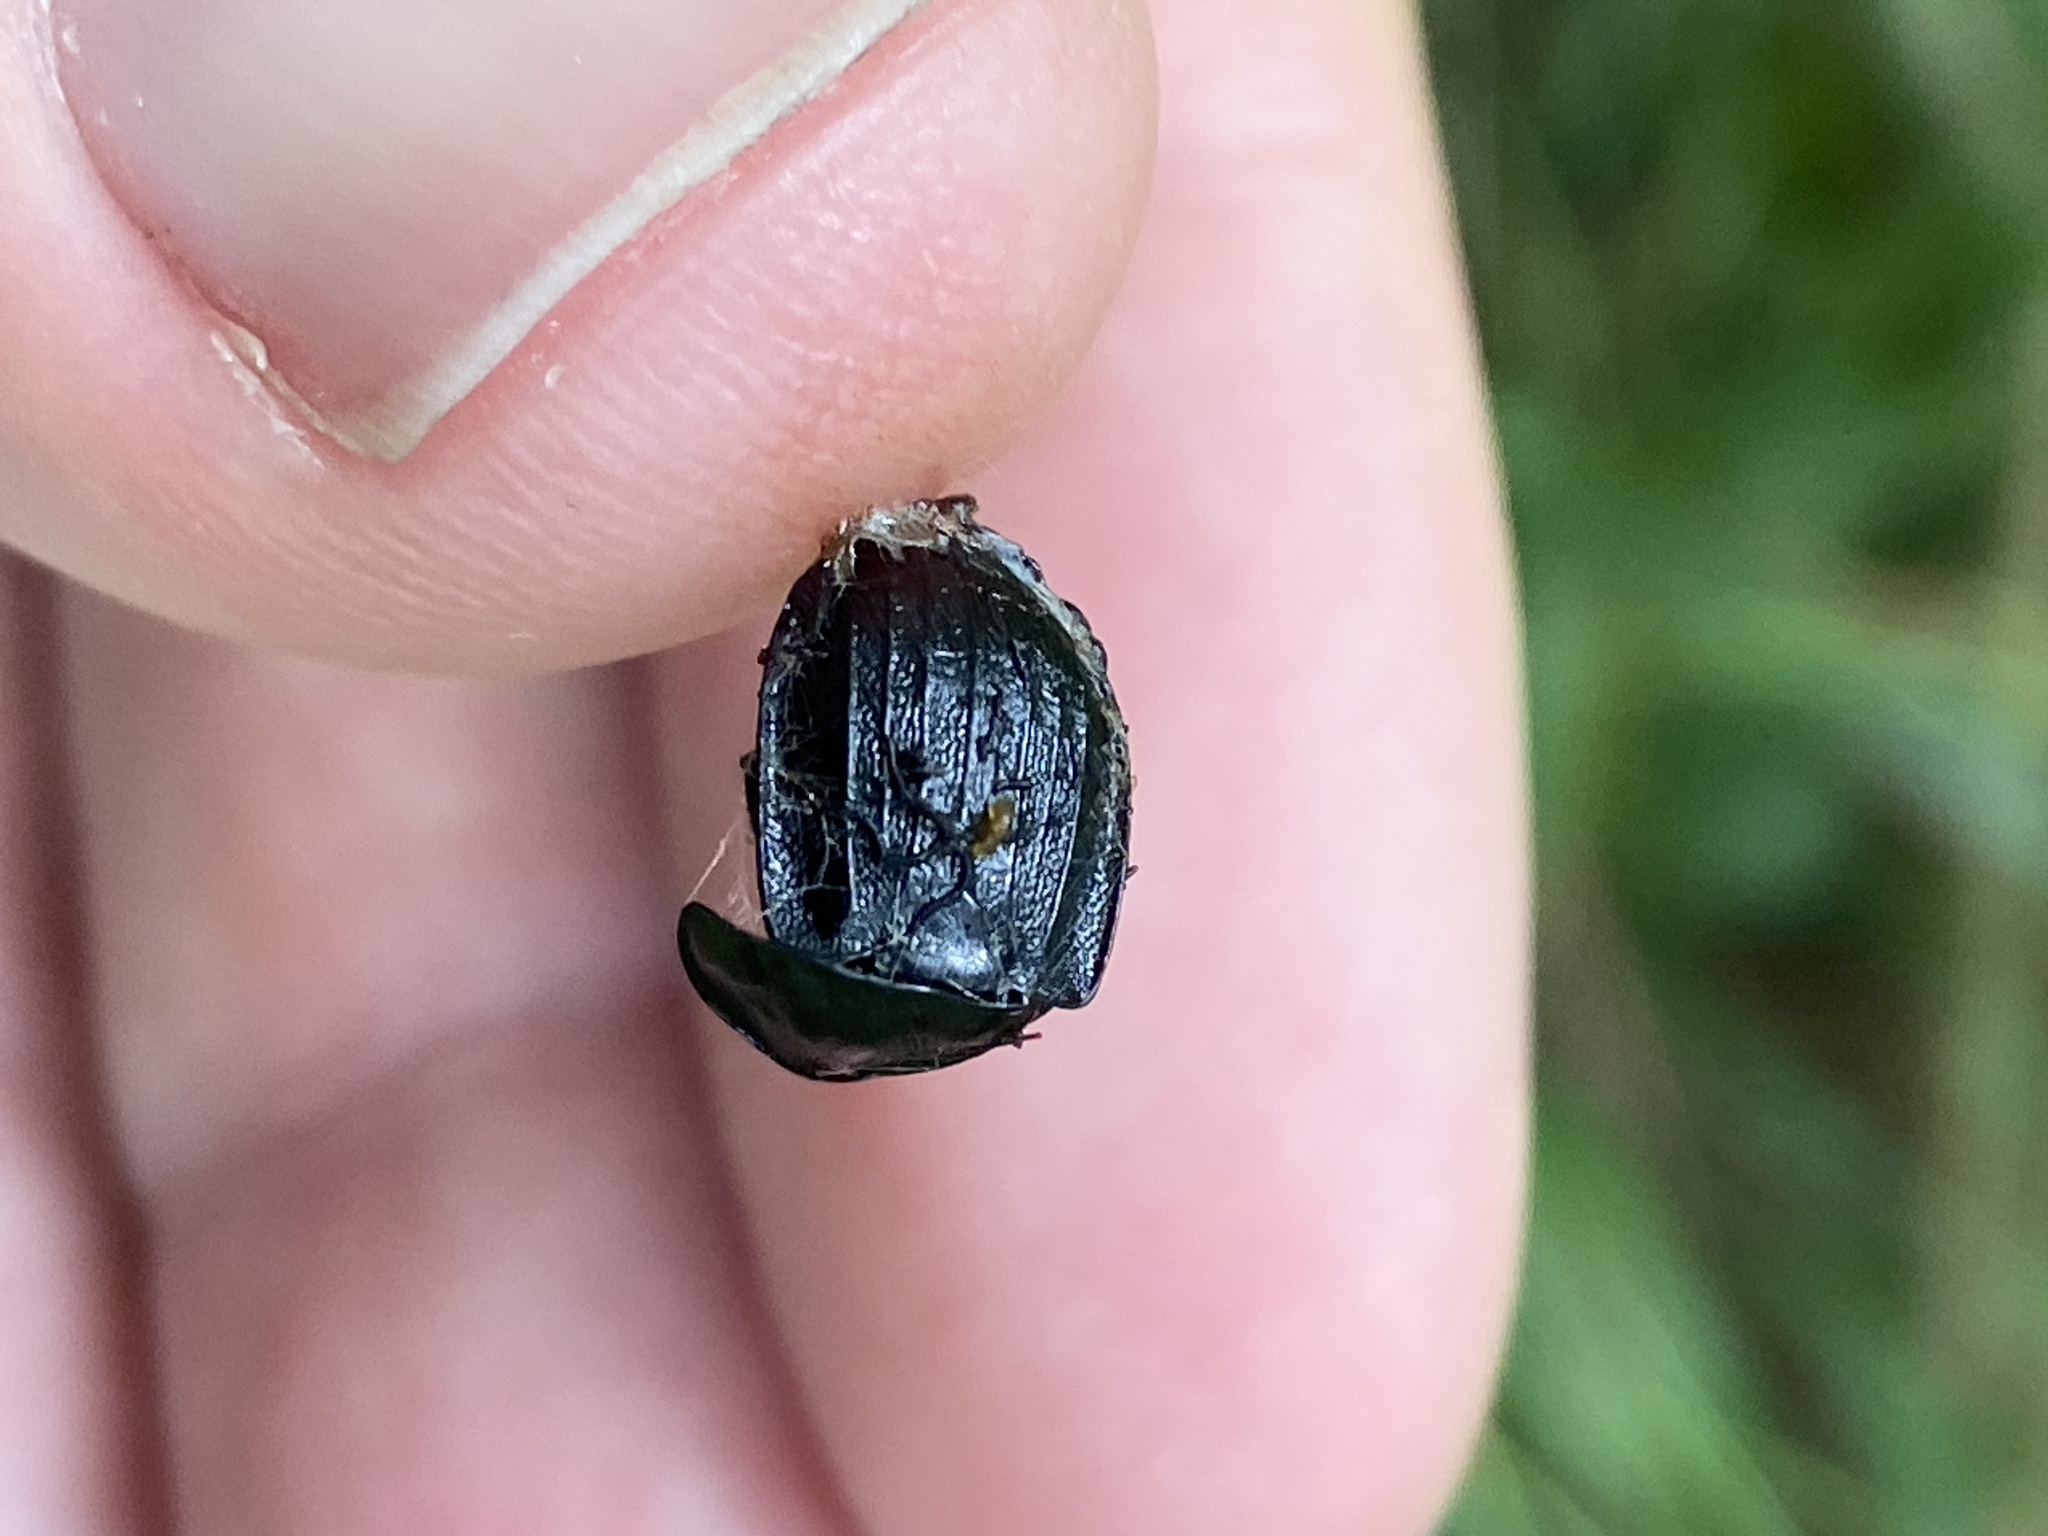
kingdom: Animalia
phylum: Arthropoda
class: Insecta
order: Coleoptera
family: Staphylinidae
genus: Silpha
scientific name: Silpha atrata
